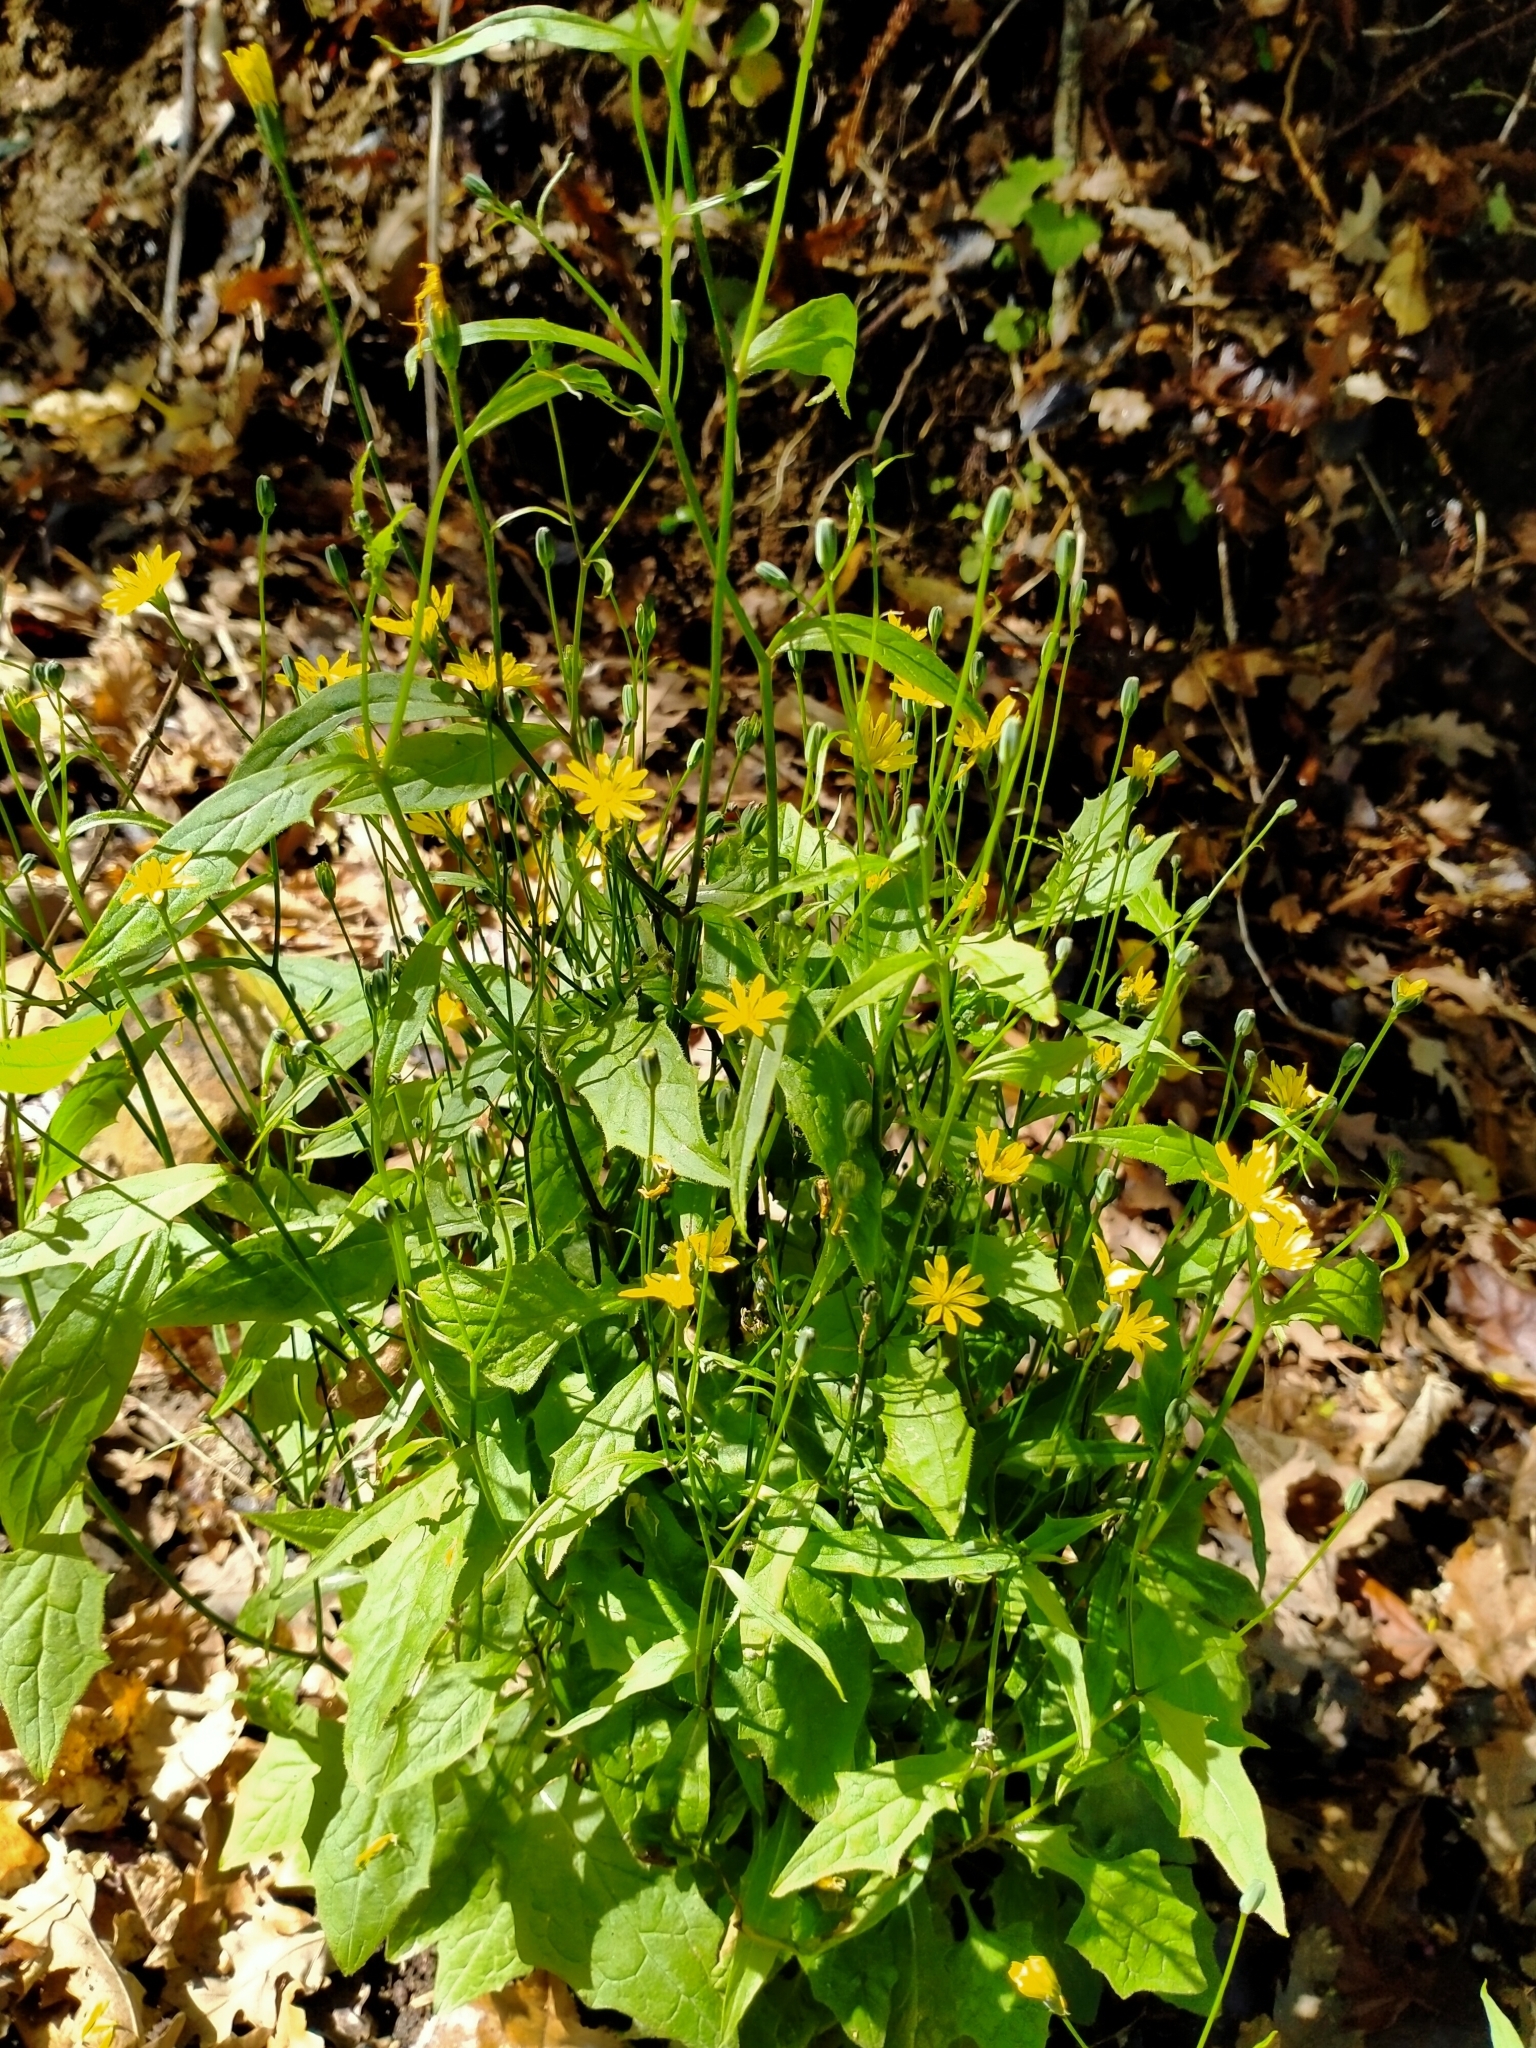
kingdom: Plantae
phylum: Tracheophyta
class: Magnoliopsida
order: Asterales
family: Asteraceae
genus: Lapsana
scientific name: Lapsana communis
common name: Nipplewort
